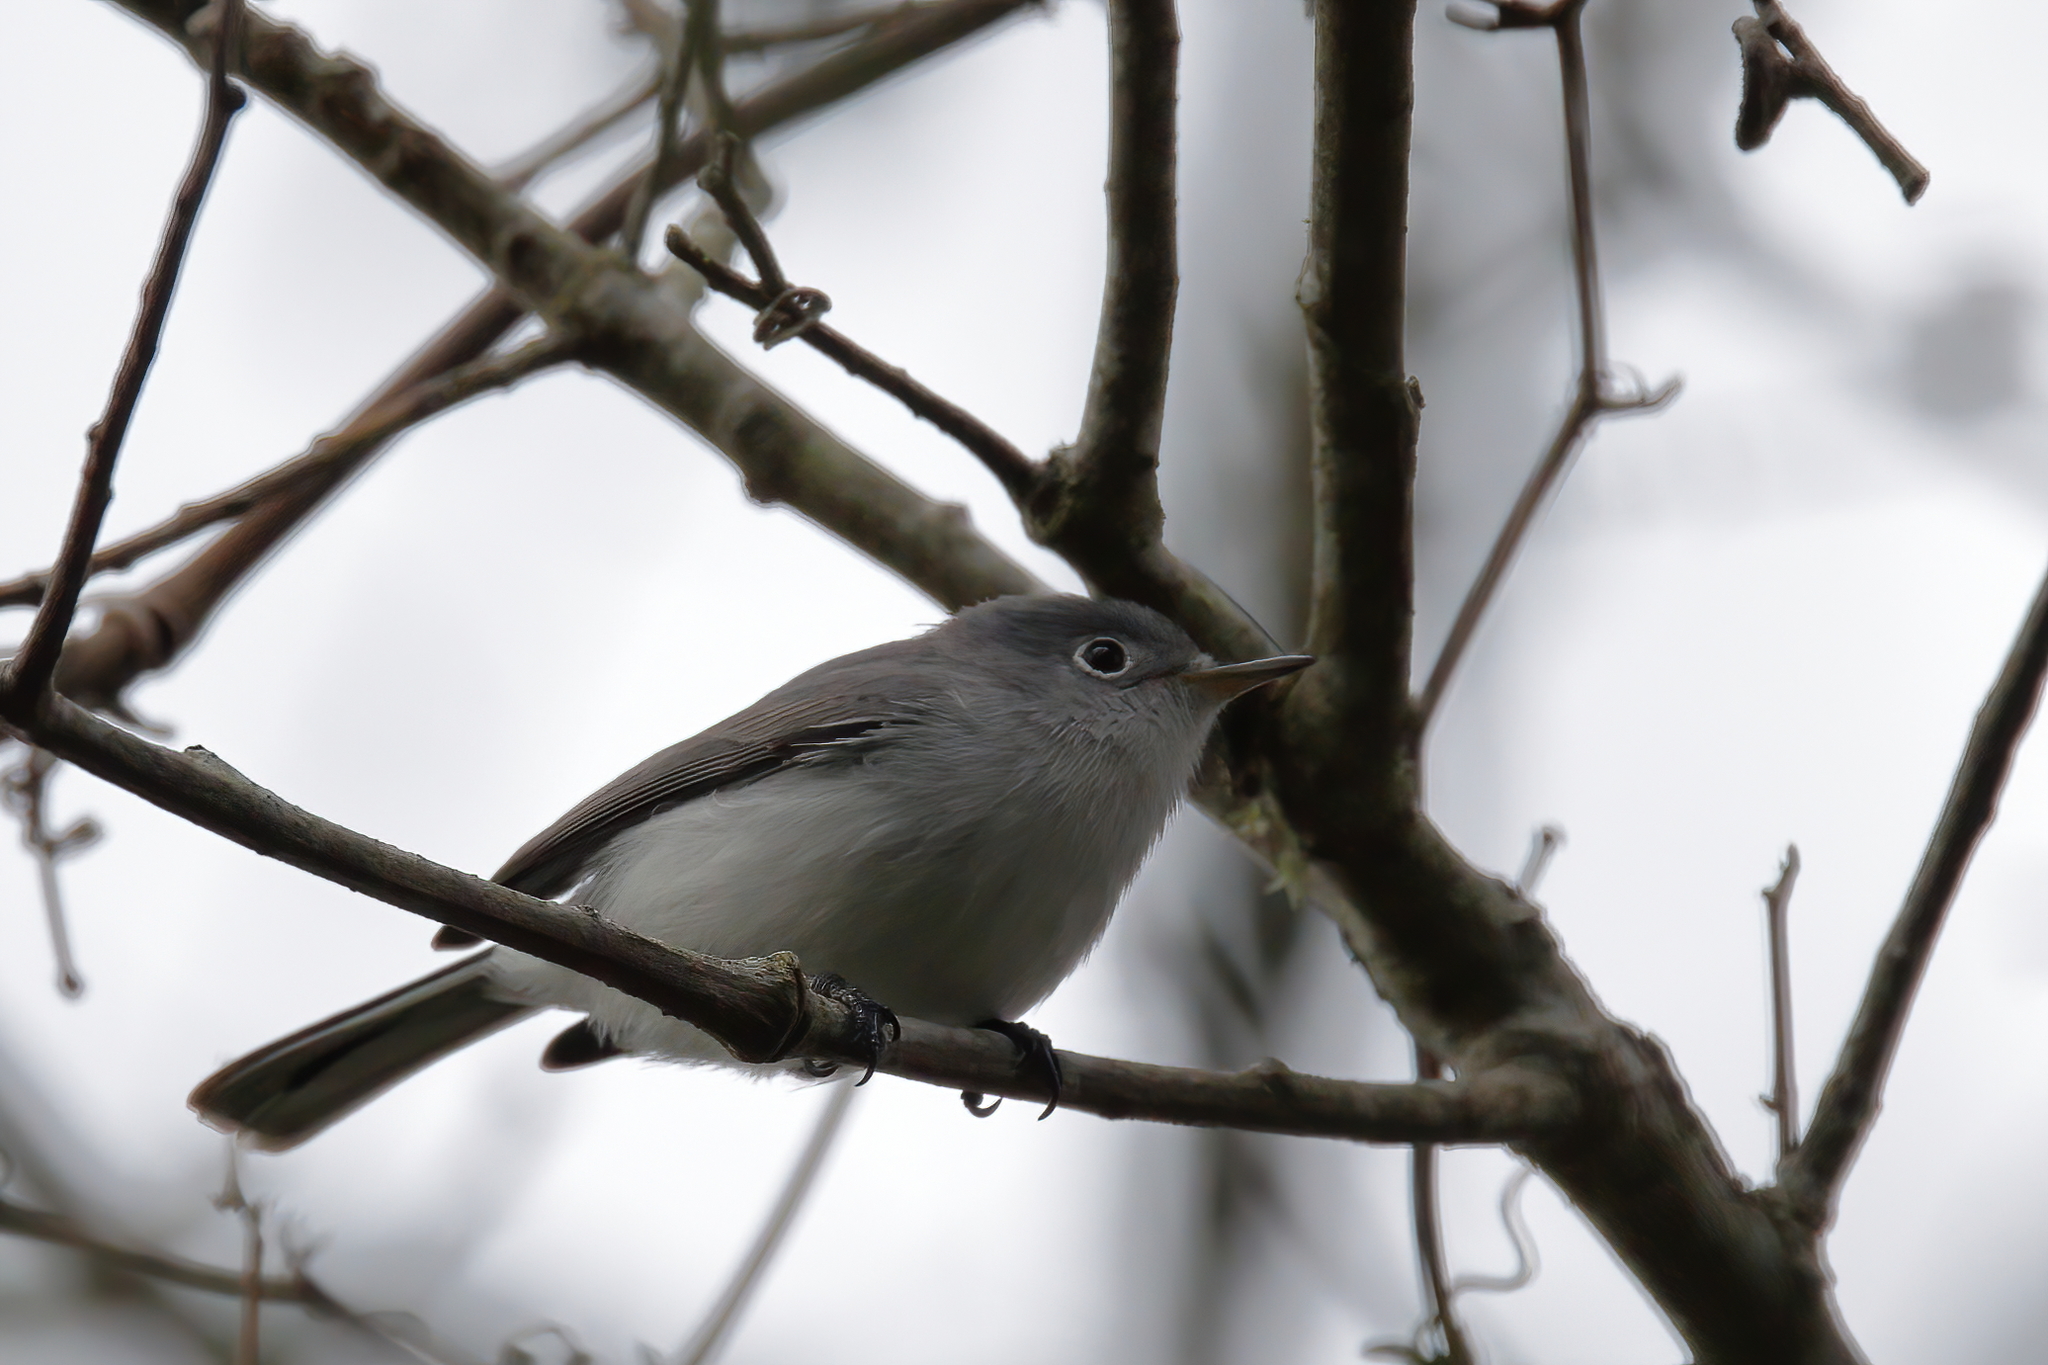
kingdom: Animalia
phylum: Chordata
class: Aves
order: Passeriformes
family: Polioptilidae
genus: Polioptila
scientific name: Polioptila caerulea
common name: Blue-gray gnatcatcher
